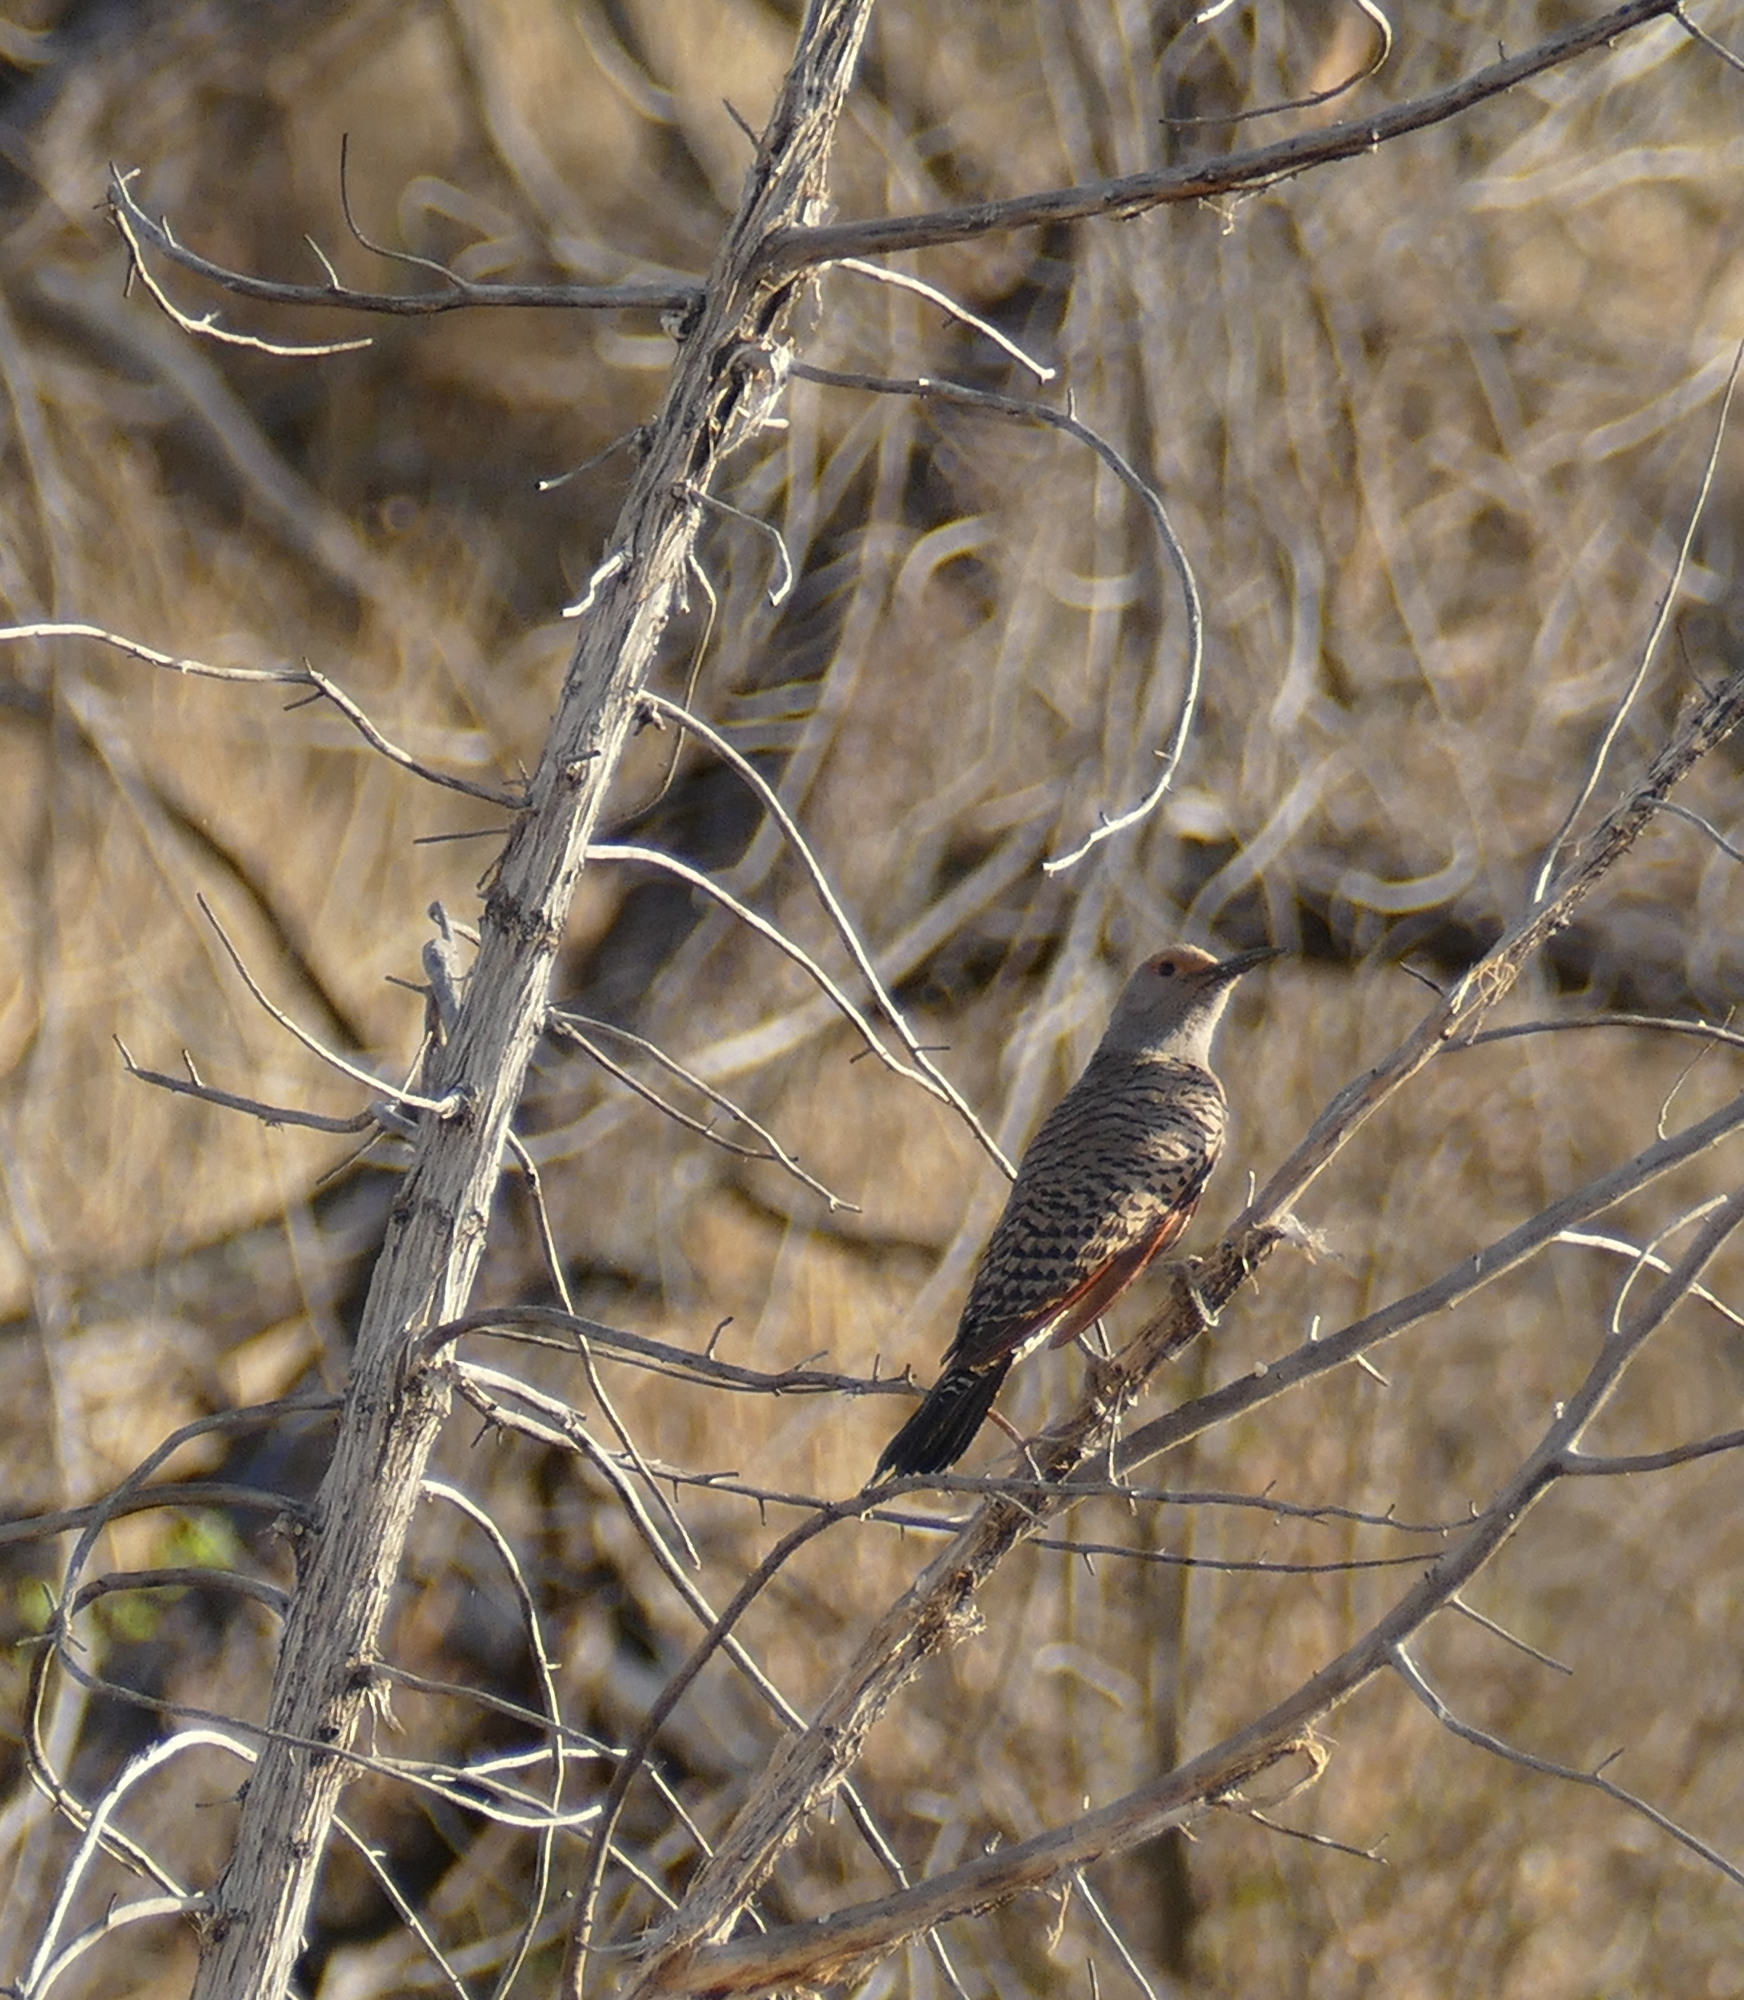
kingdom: Animalia
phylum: Chordata
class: Aves
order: Piciformes
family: Picidae
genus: Colaptes
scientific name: Colaptes auratus
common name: Northern flicker
